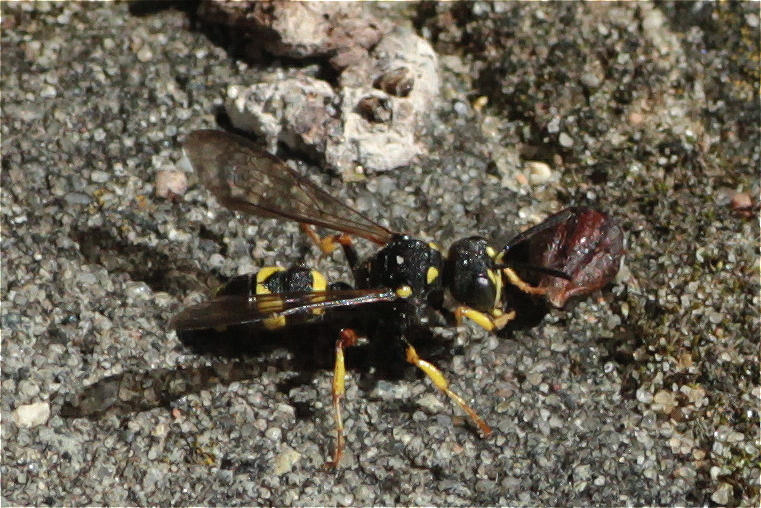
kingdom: Animalia
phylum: Arthropoda
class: Insecta
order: Hymenoptera
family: Crabronidae
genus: Cerceris
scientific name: Cerceris rybyensis
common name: Ornate tailed digger wasp
